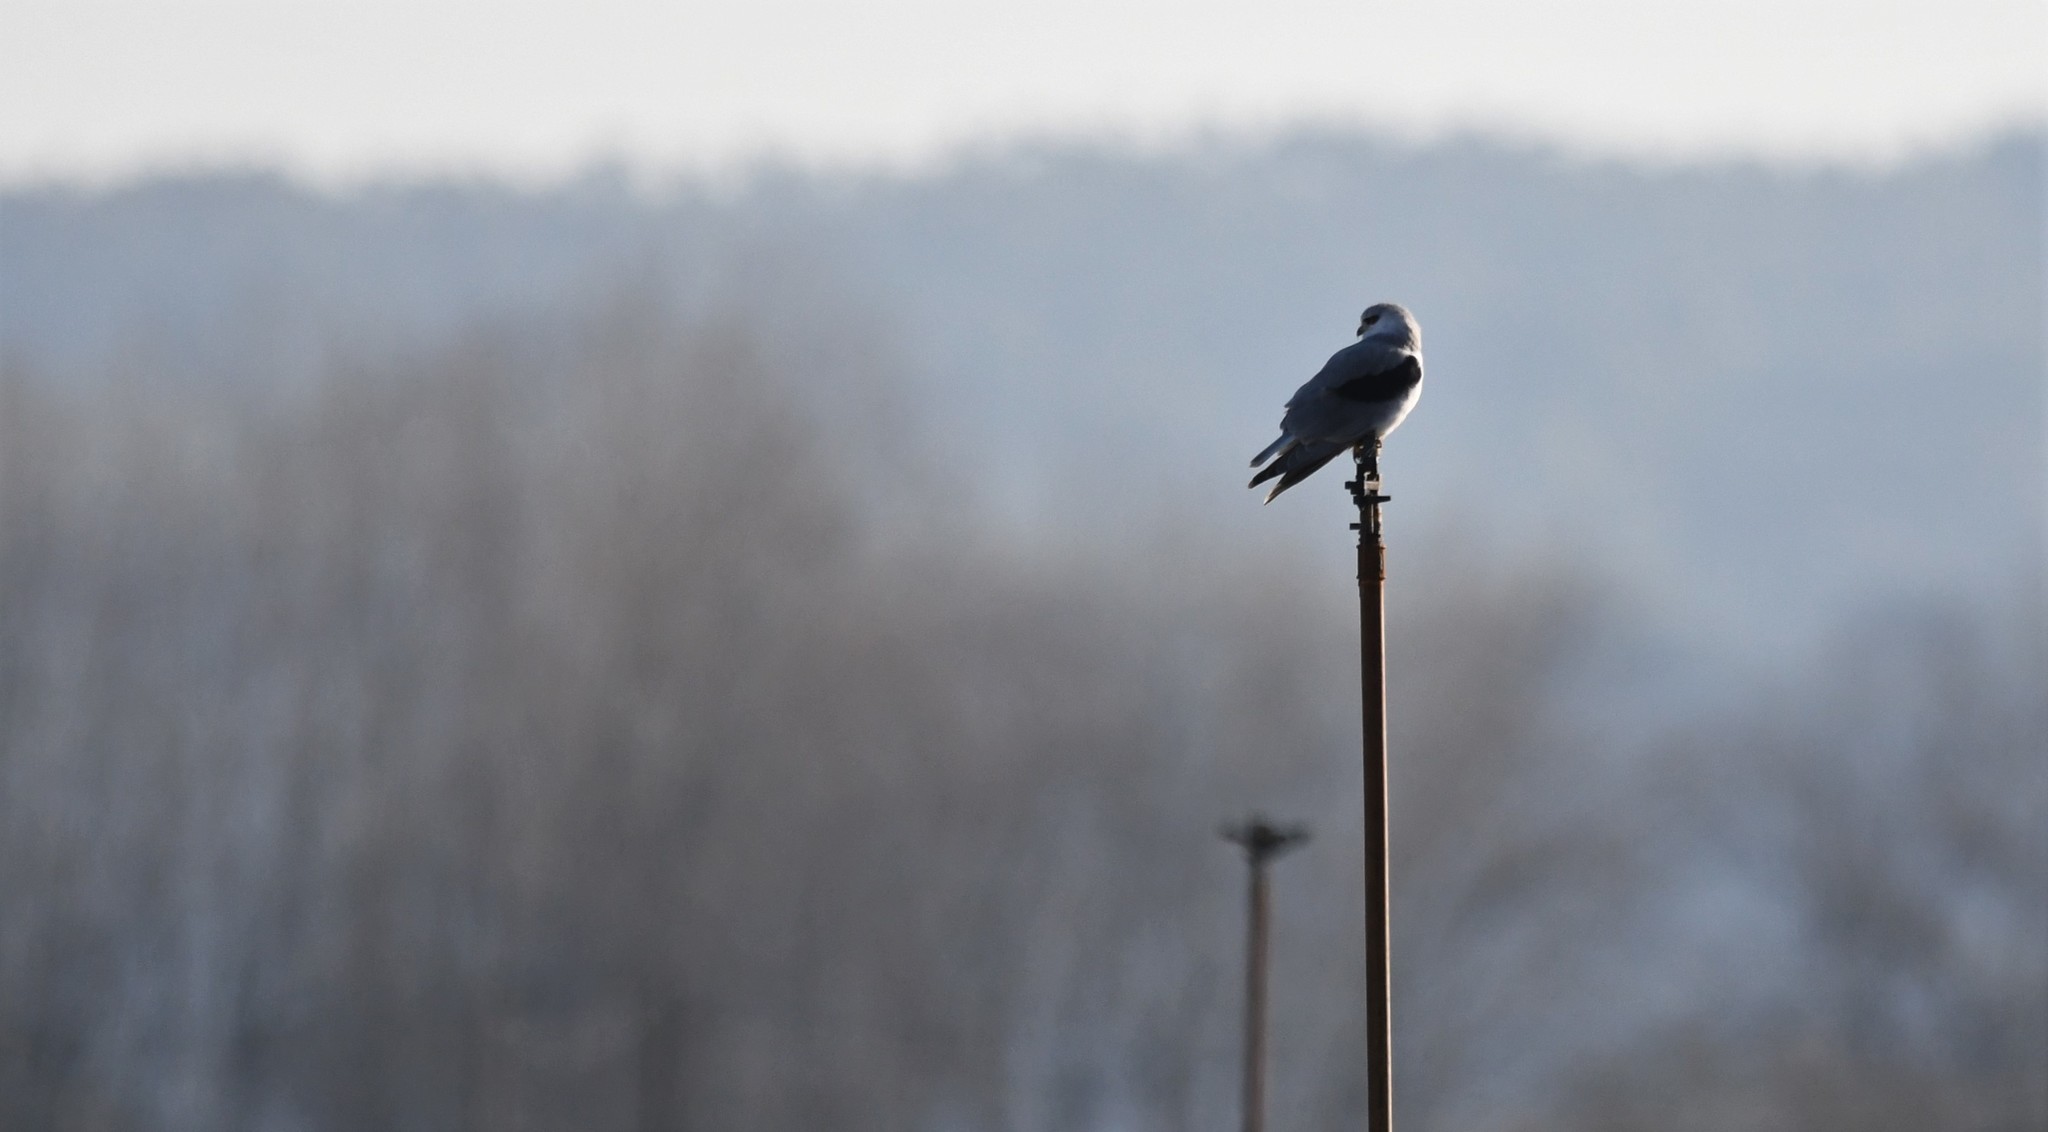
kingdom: Animalia
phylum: Chordata
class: Aves
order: Accipitriformes
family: Accipitridae
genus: Elanus
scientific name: Elanus caeruleus
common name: Black-winged kite
